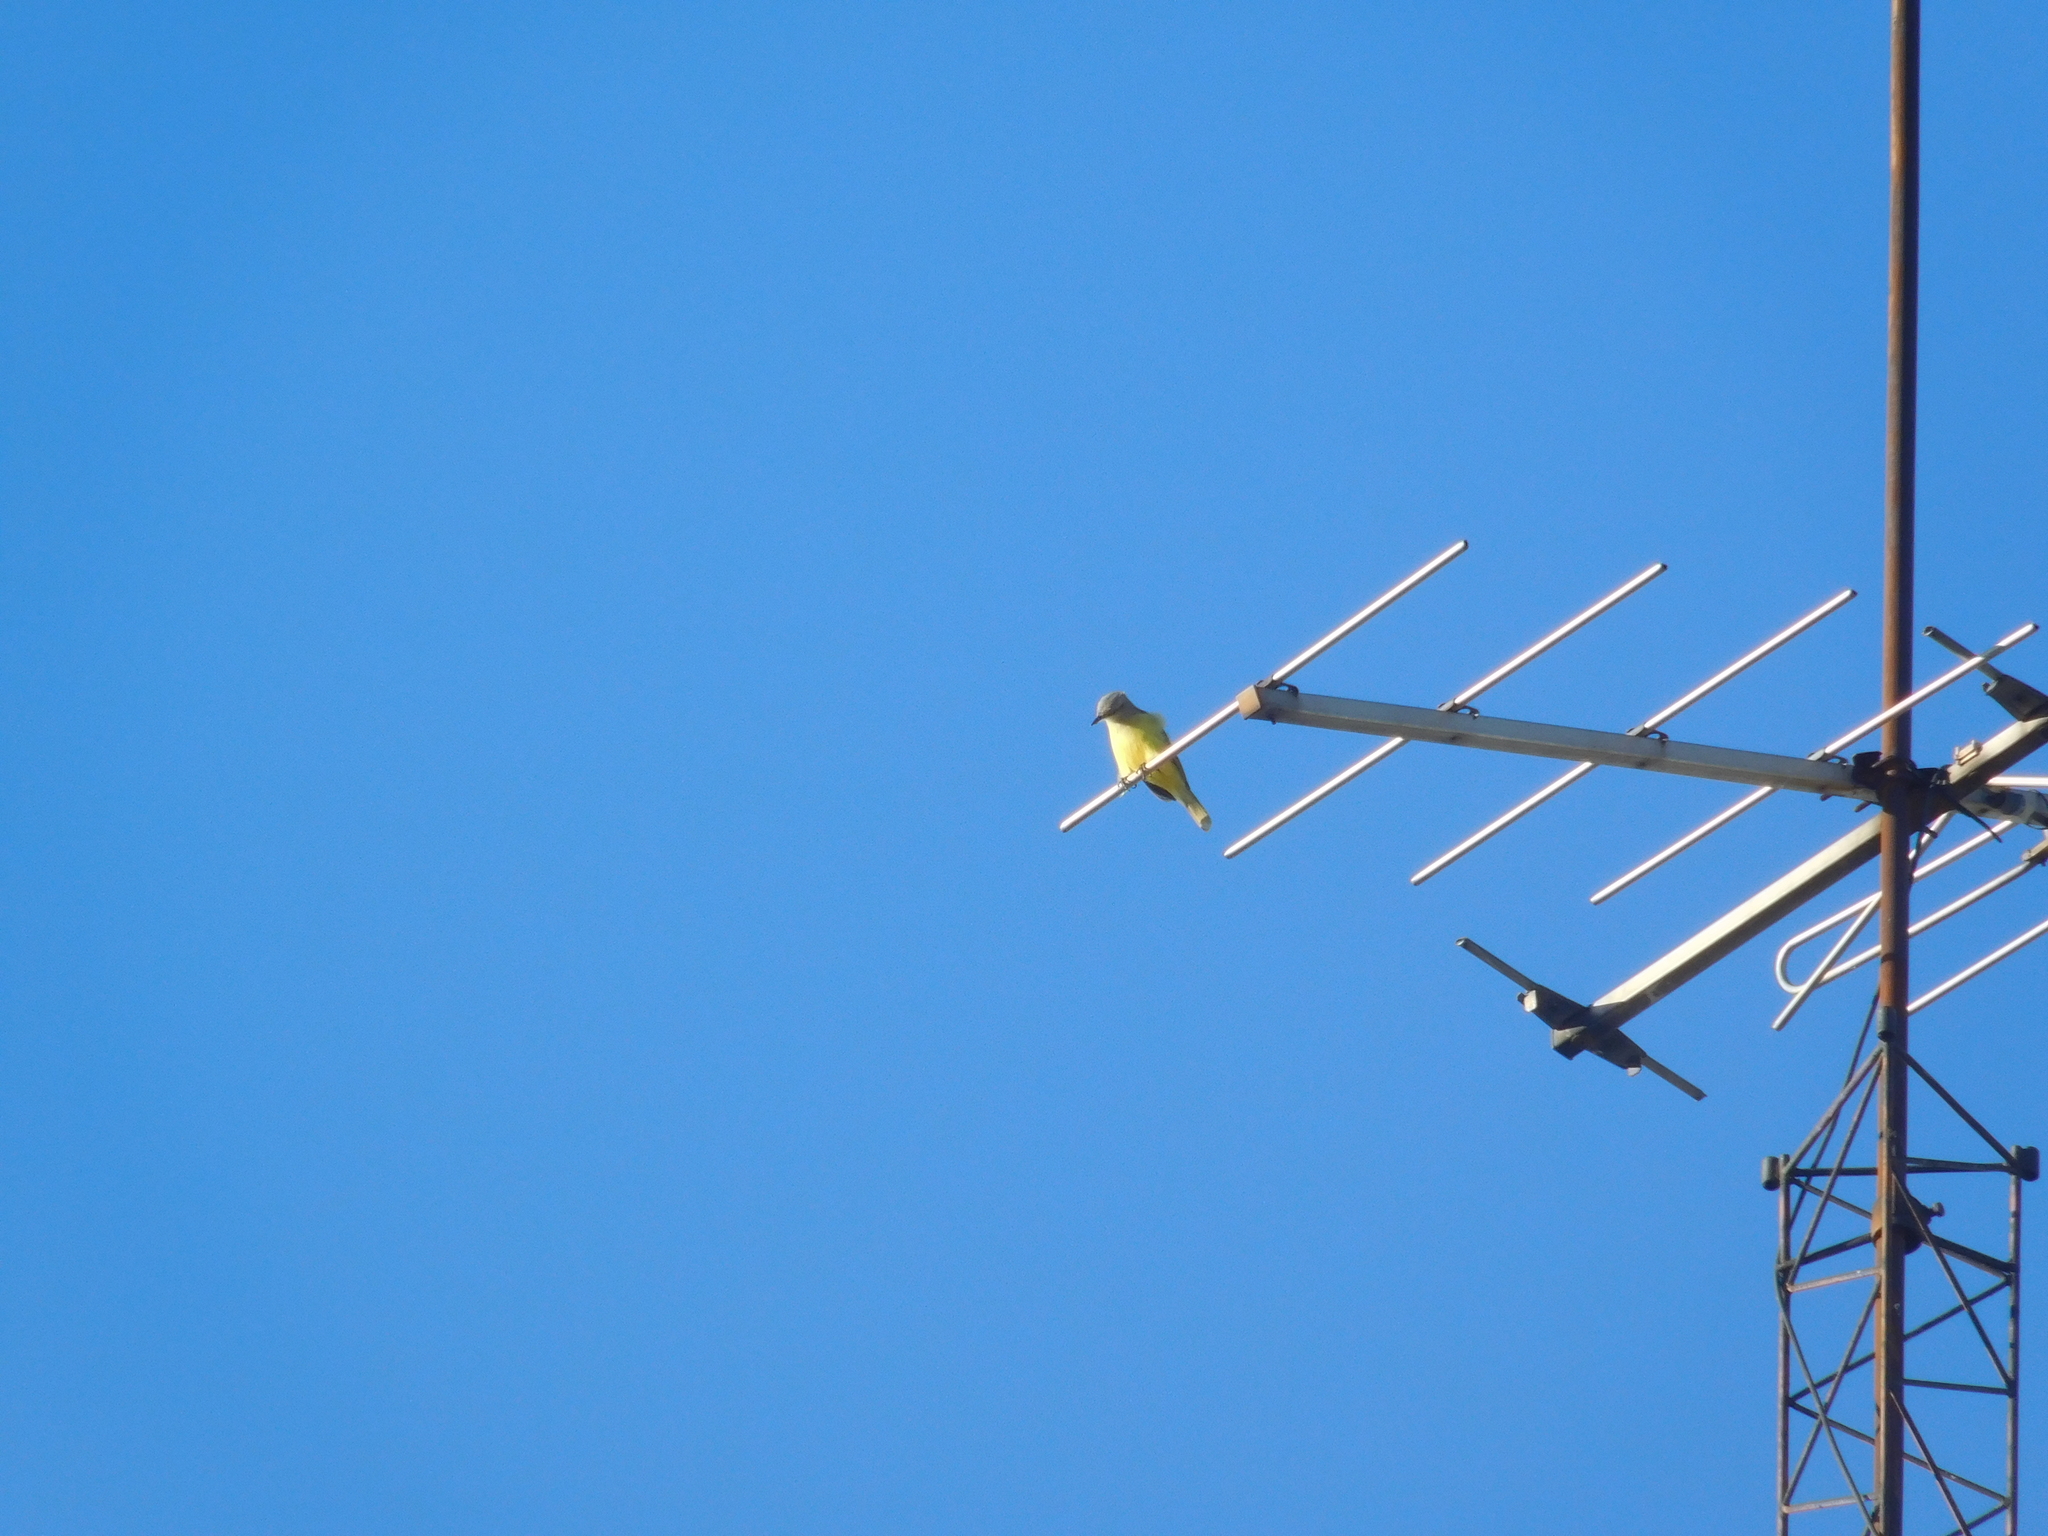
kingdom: Animalia
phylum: Chordata
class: Aves
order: Passeriformes
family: Tyrannidae
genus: Machetornis
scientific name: Machetornis rixosa
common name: Cattle tyrant
